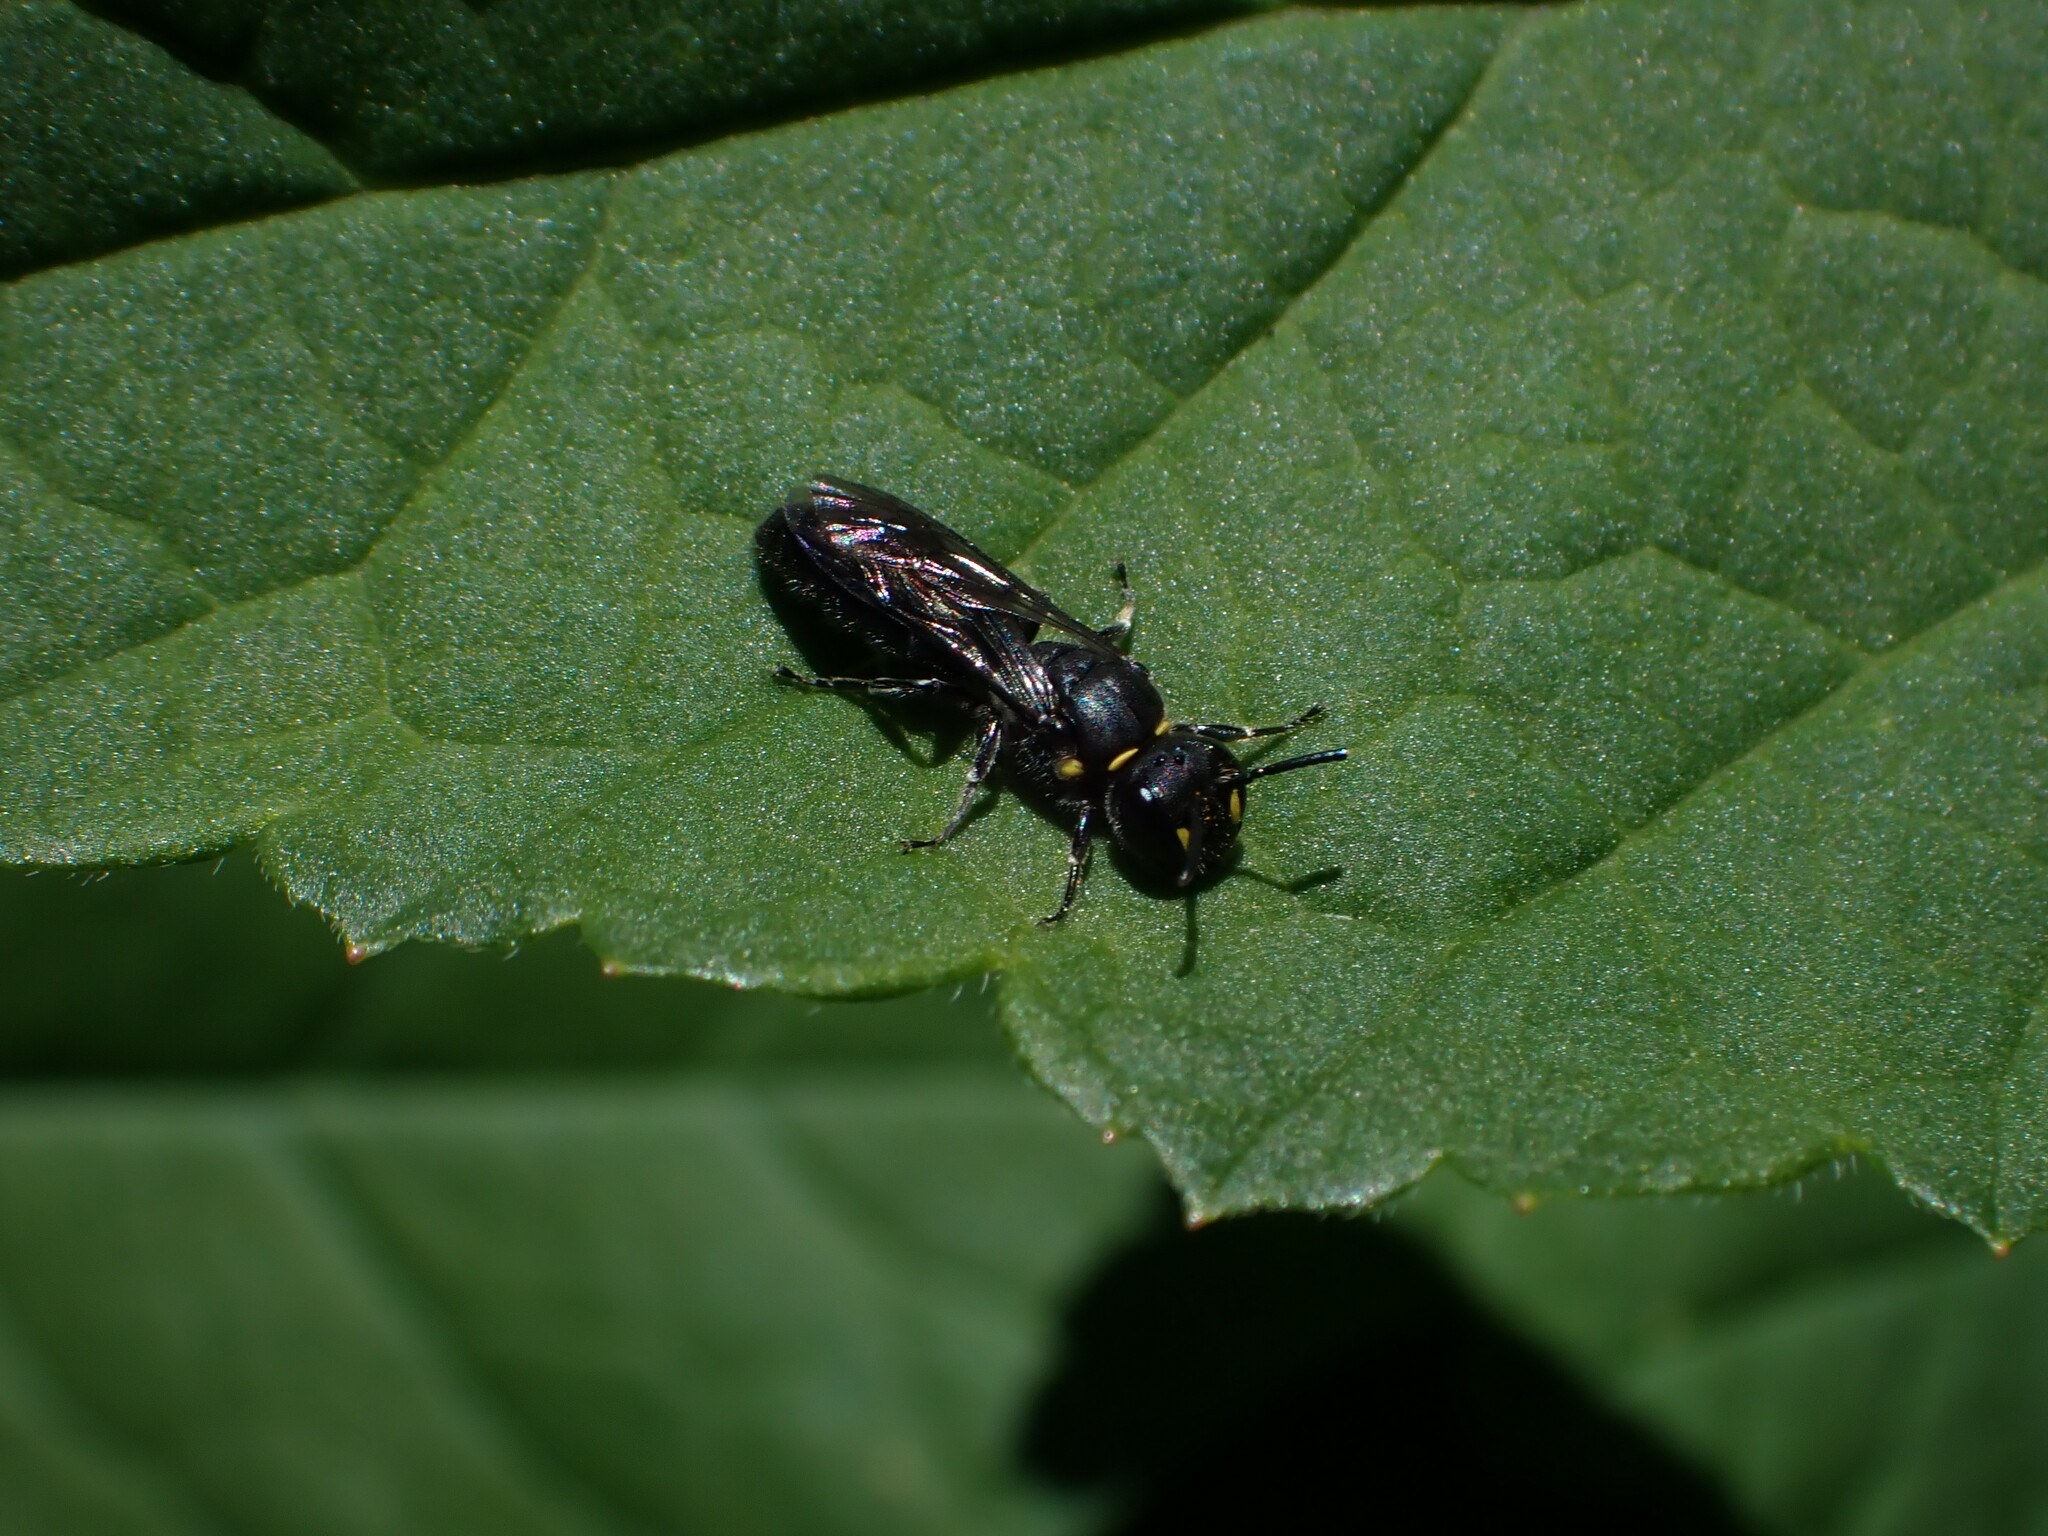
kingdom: Animalia
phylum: Arthropoda
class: Insecta
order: Hymenoptera
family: Colletidae
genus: Hylaeus
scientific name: Hylaeus relegatus
